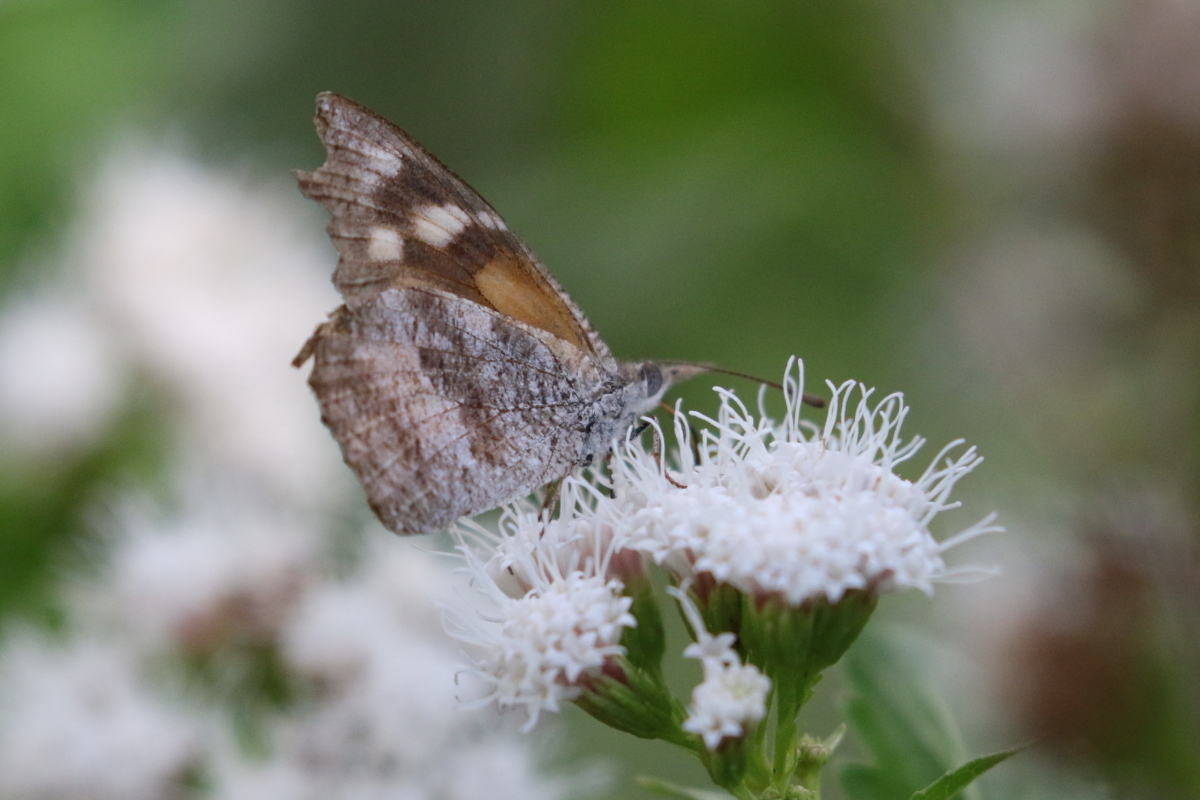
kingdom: Animalia
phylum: Arthropoda
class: Insecta
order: Lepidoptera
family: Nymphalidae
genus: Libytheana
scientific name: Libytheana carinenta
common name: American snout
